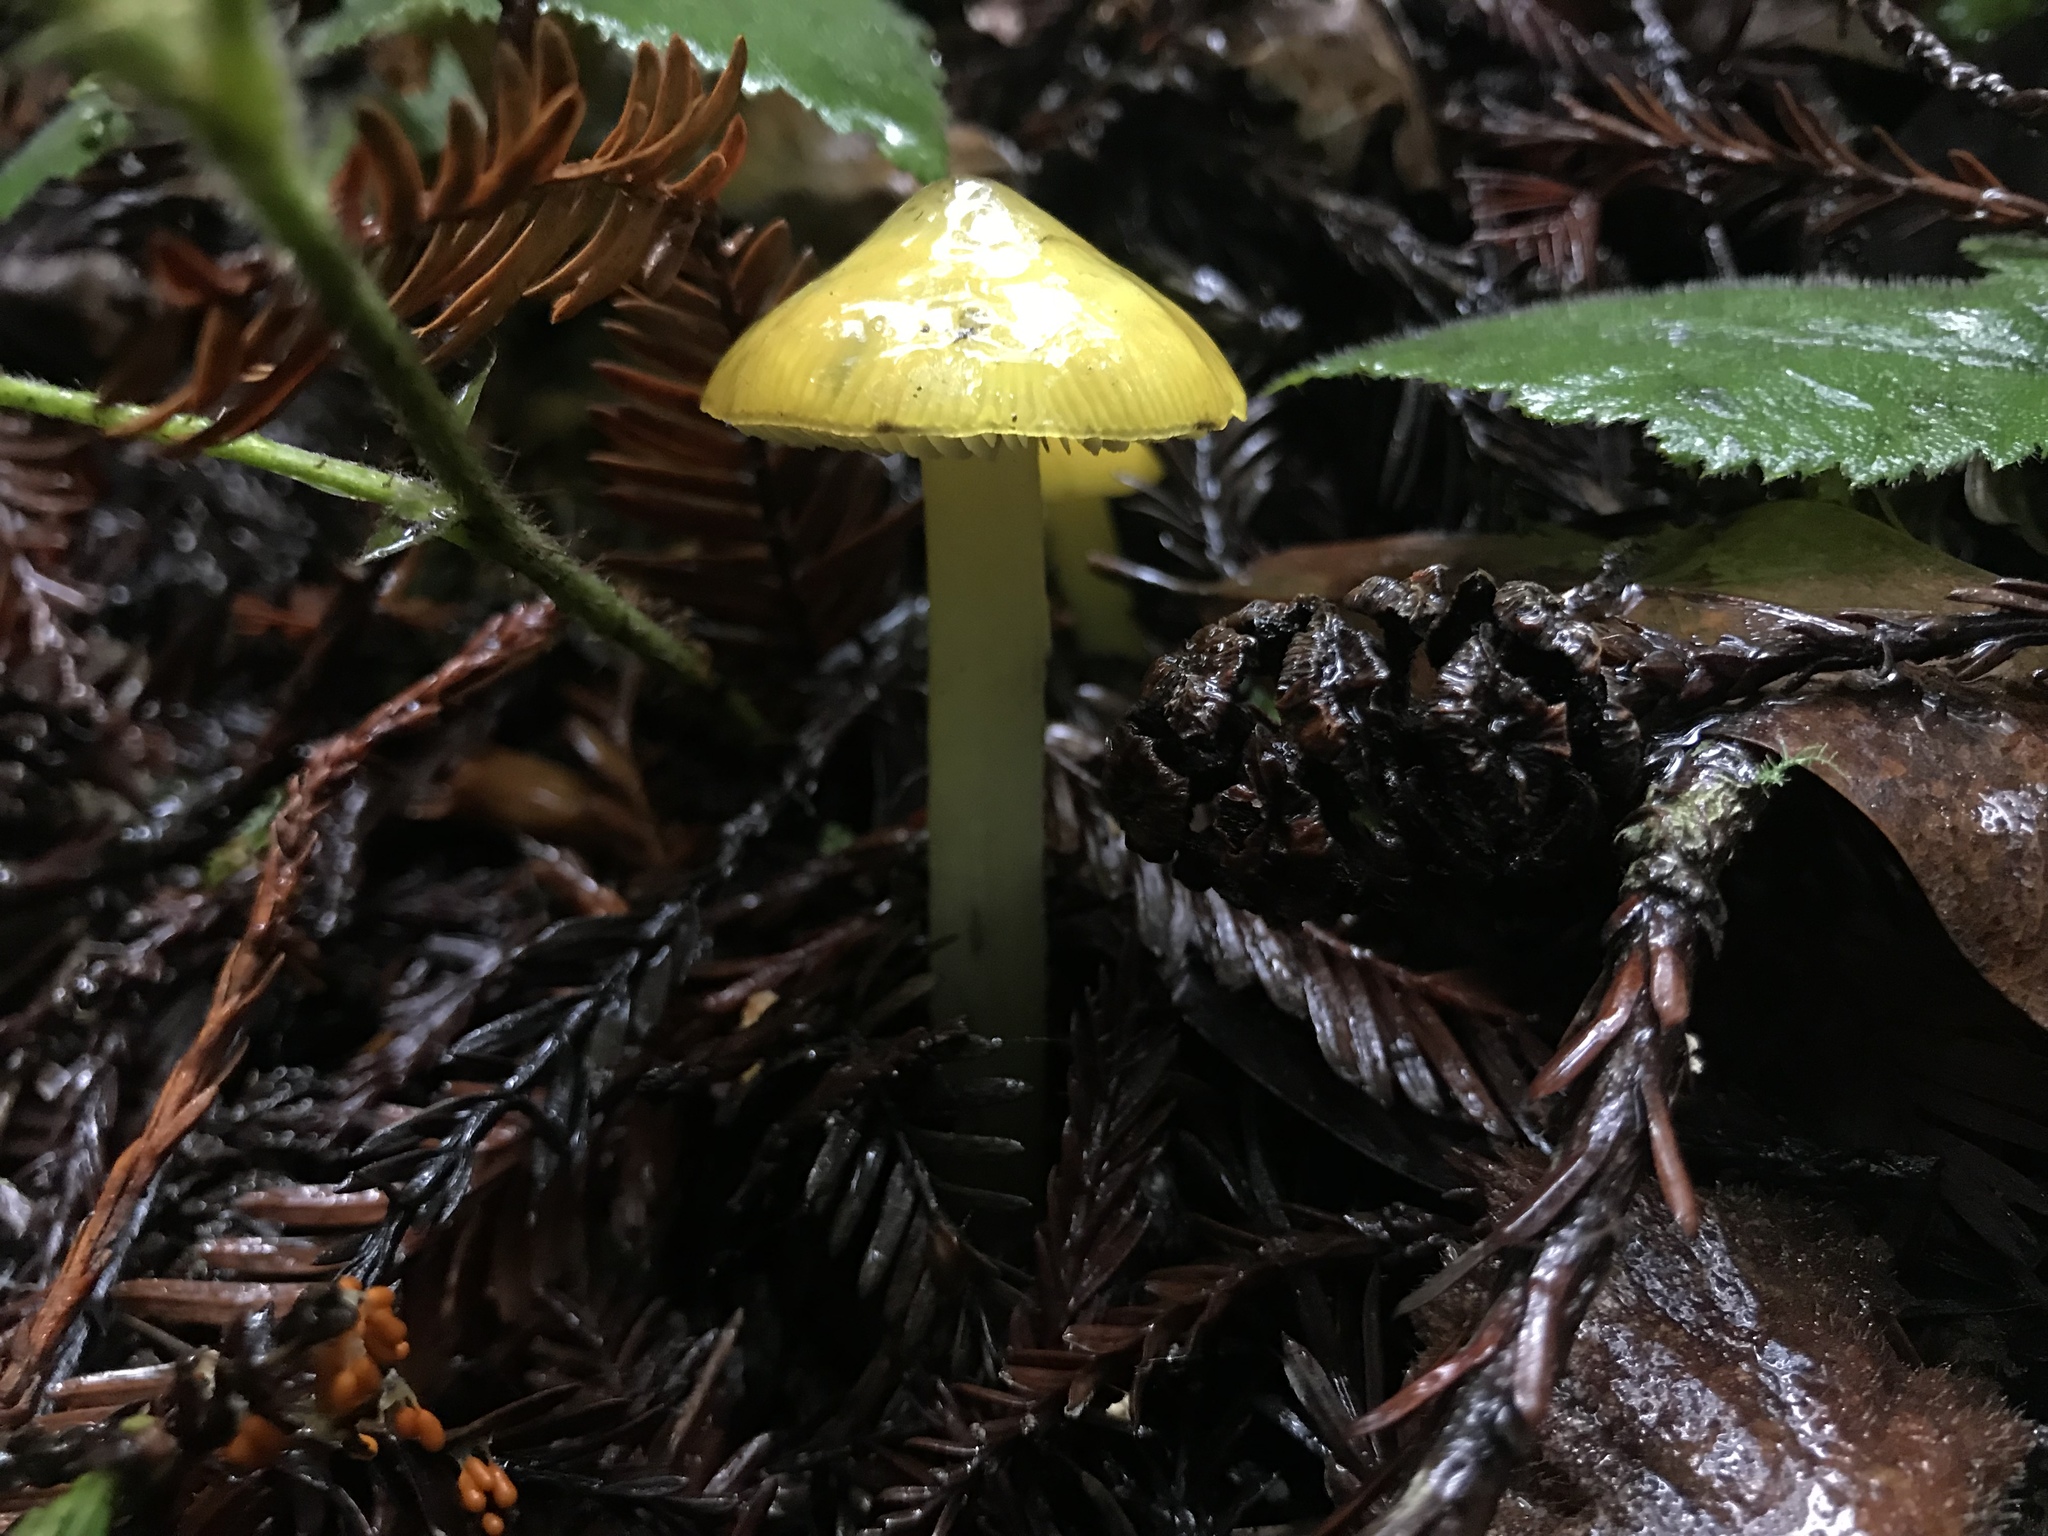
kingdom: Fungi
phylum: Basidiomycota
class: Agaricomycetes
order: Agaricales
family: Hygrophoraceae
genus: Hygrocybe
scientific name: Hygrocybe singeri
